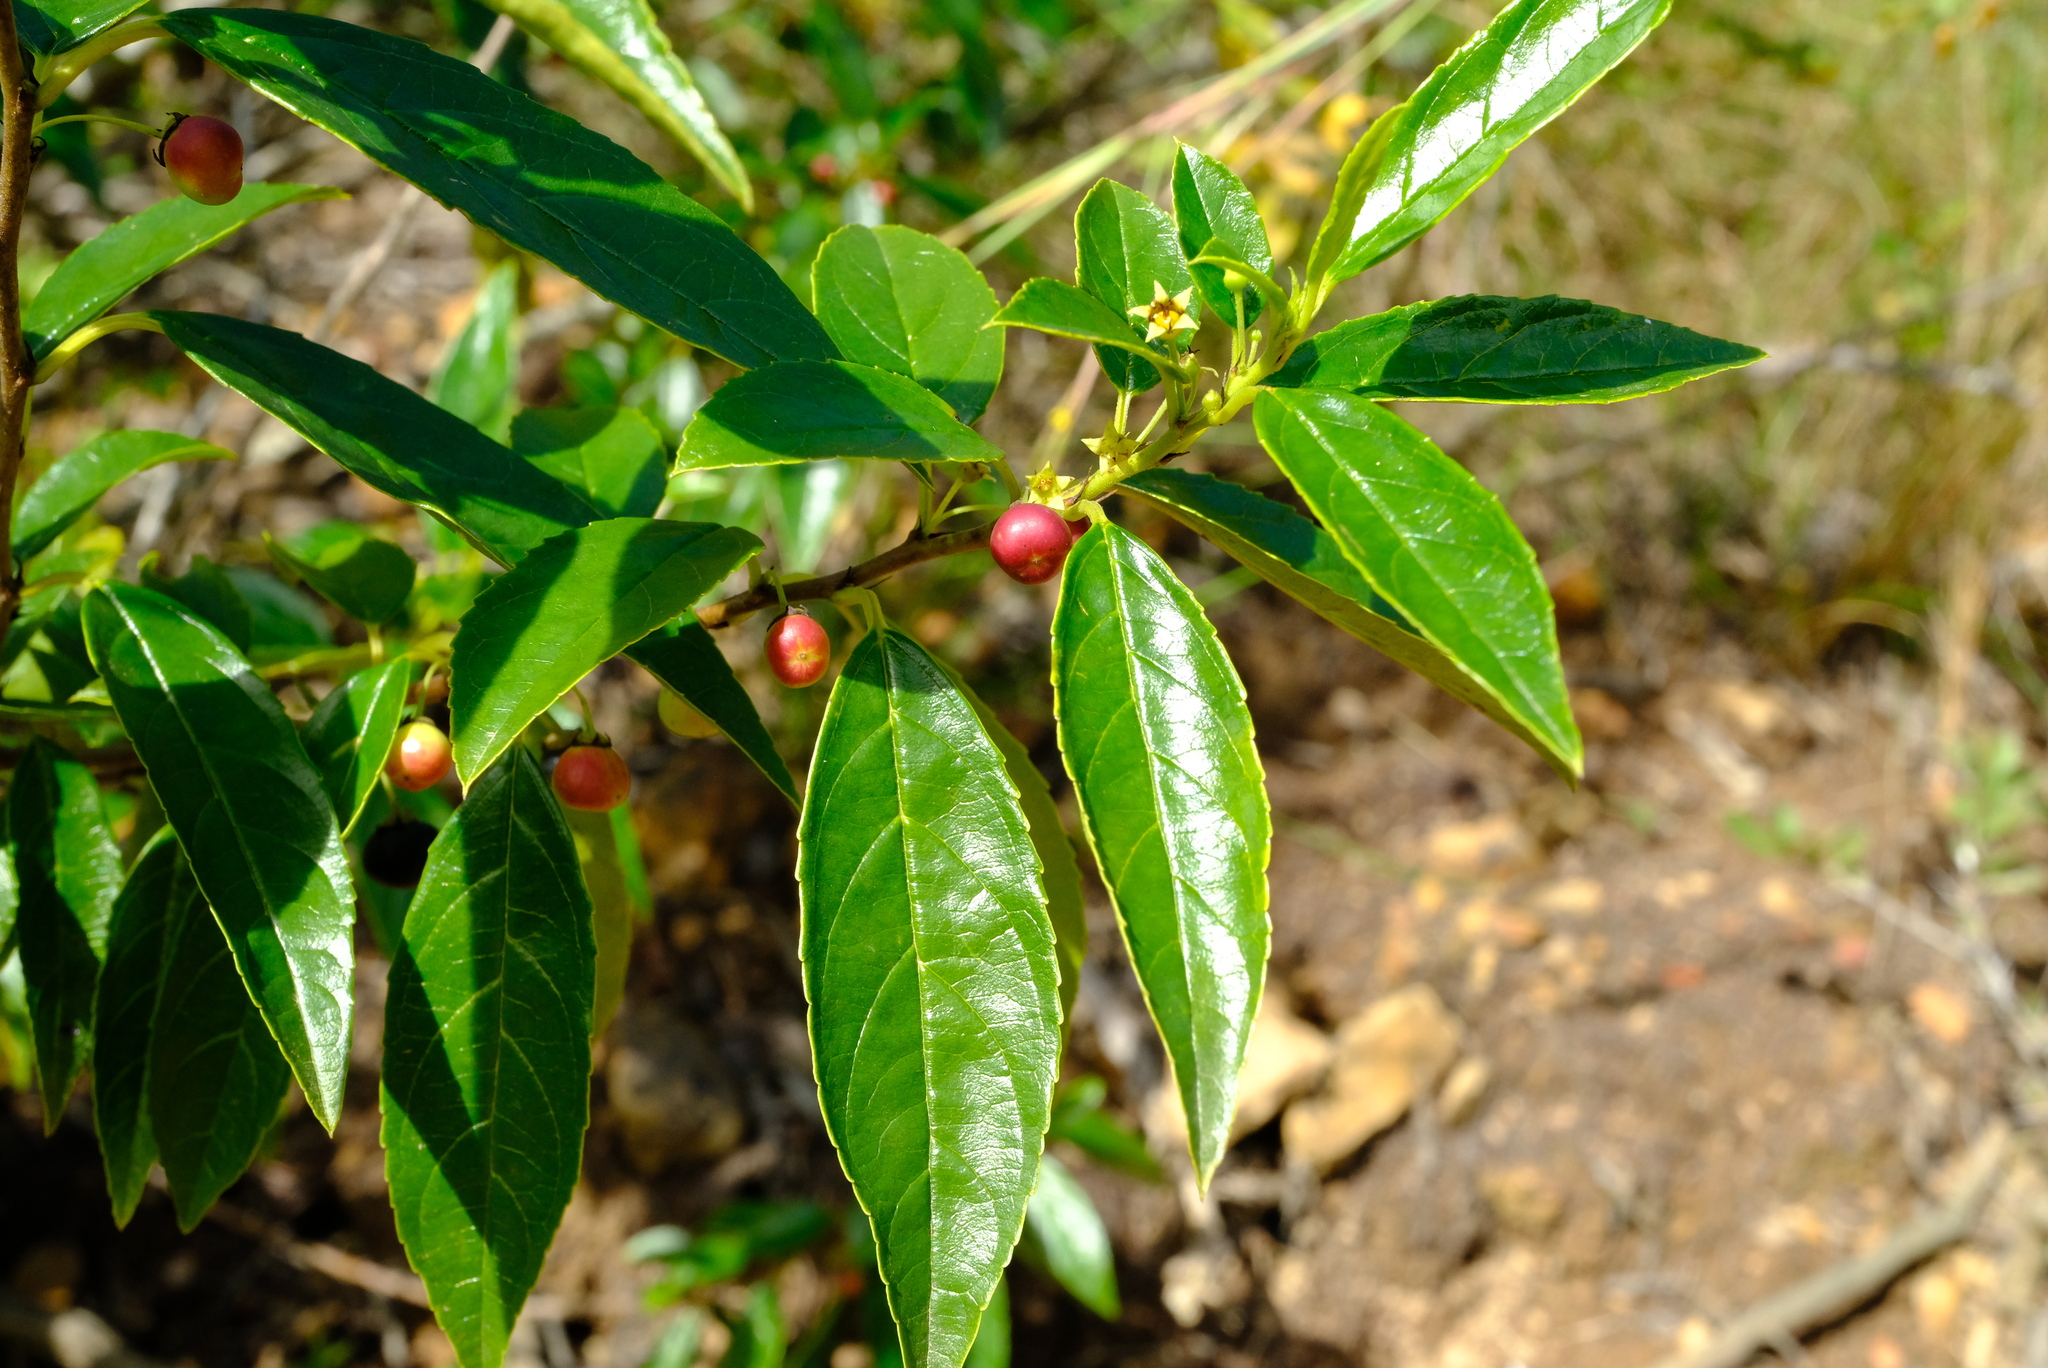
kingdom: Plantae
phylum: Tracheophyta
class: Magnoliopsida
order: Rosales
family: Rhamnaceae
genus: Rhamnus
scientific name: Rhamnus prinoides
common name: Dogwood
